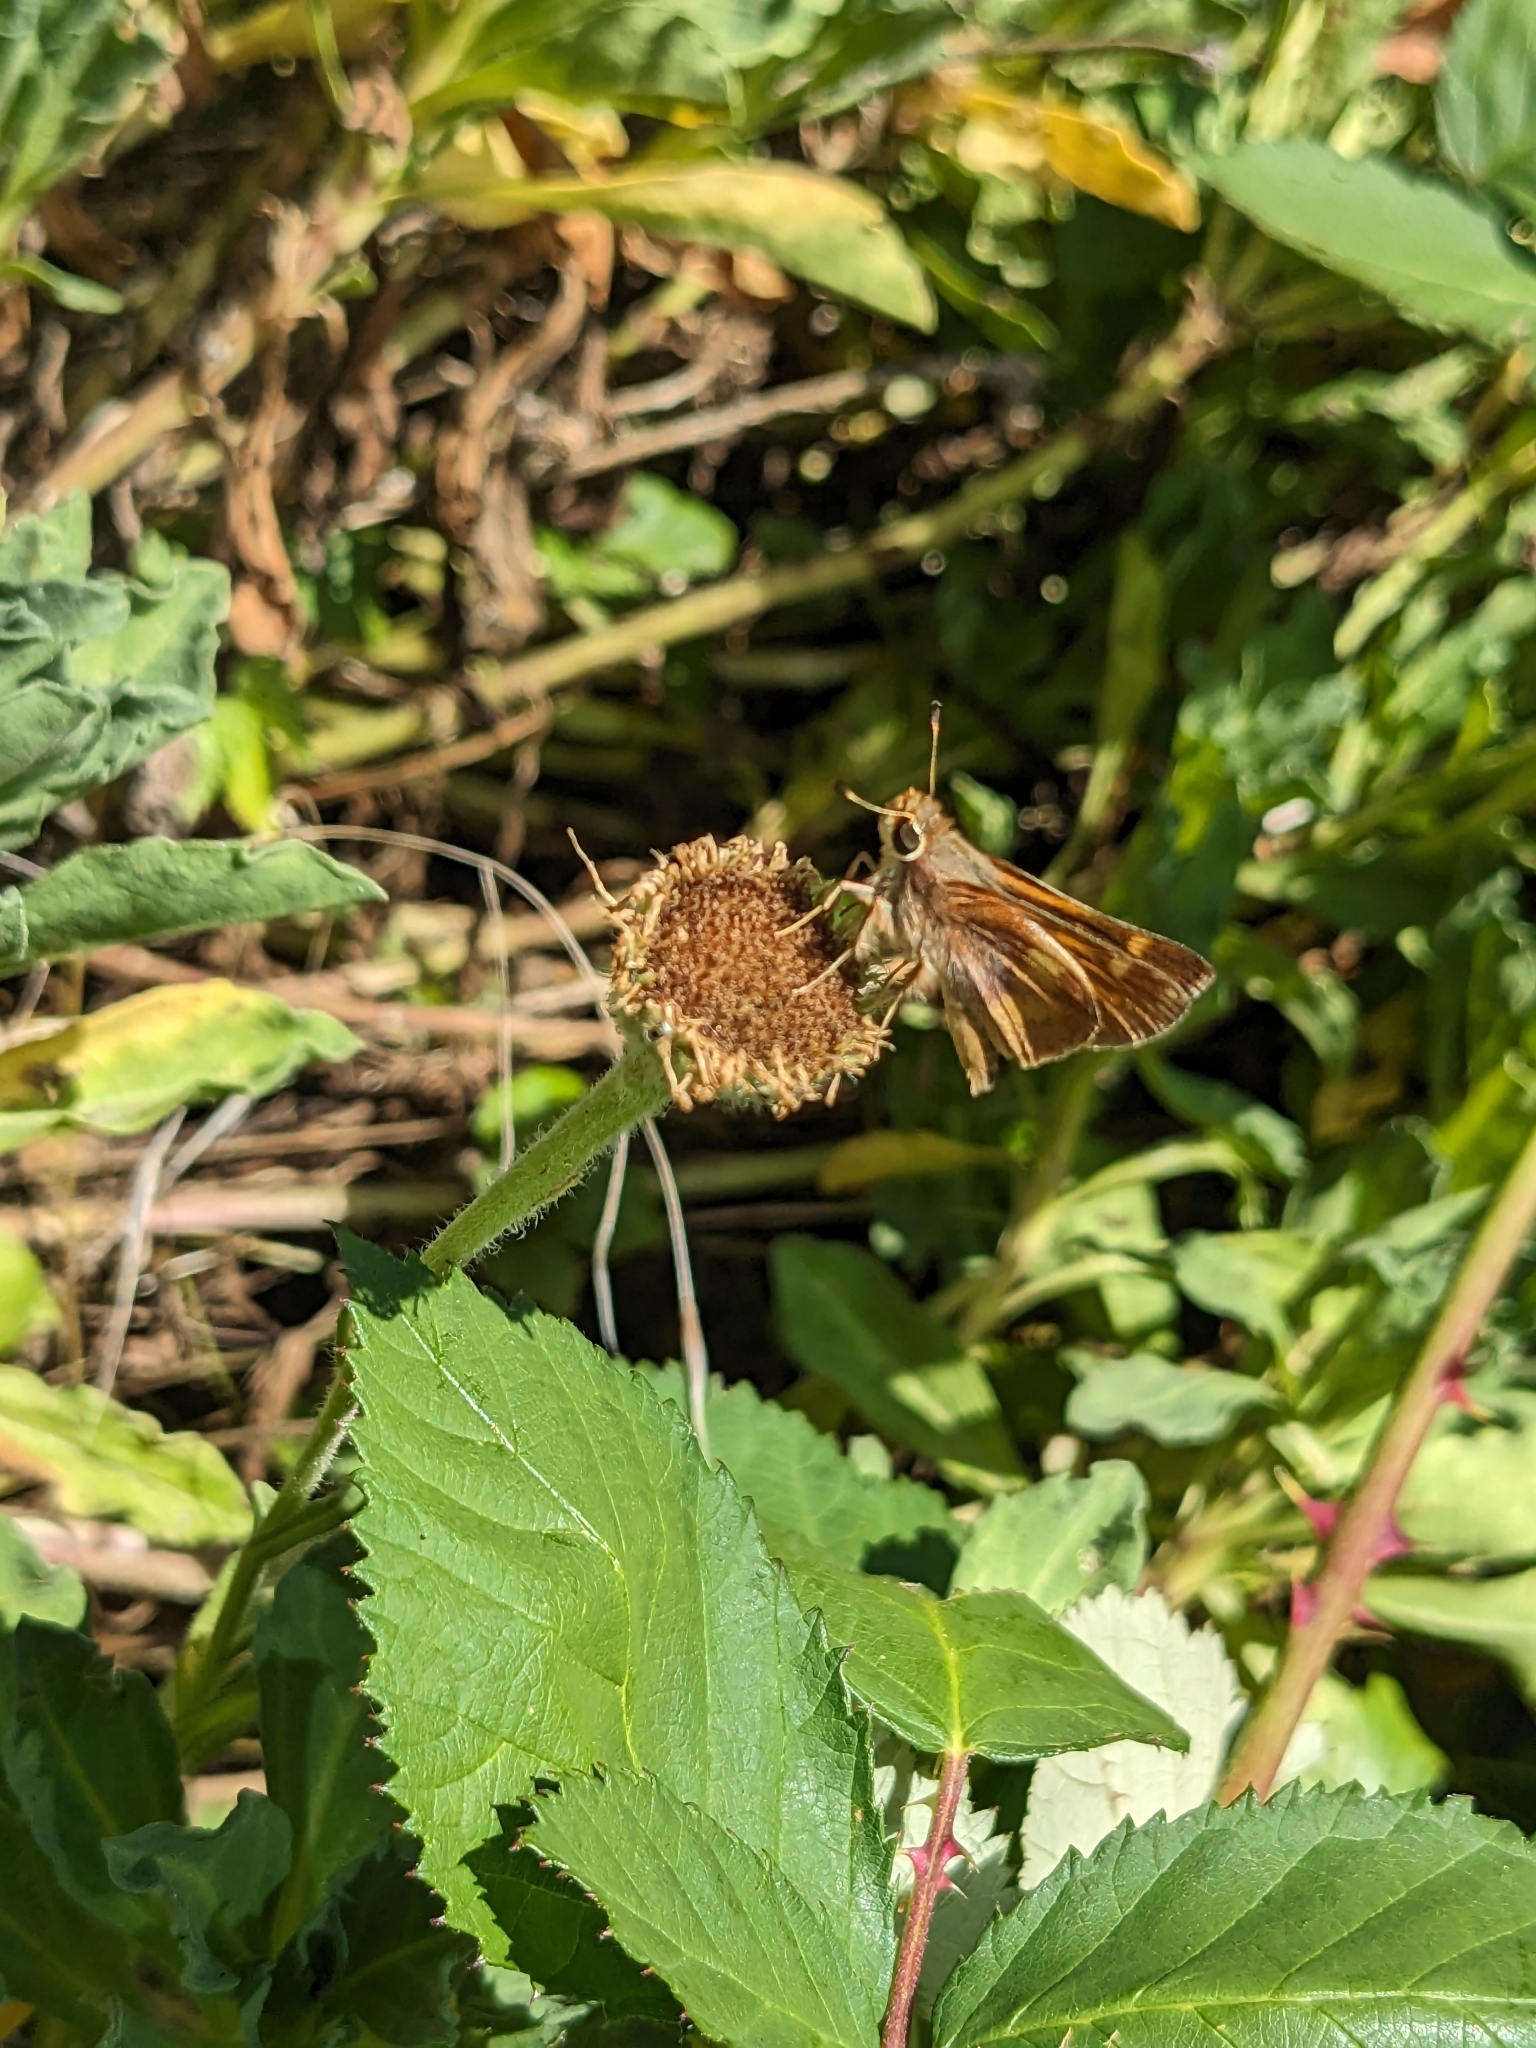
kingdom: Animalia
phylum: Arthropoda
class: Insecta
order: Lepidoptera
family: Hesperiidae
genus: Lon
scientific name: Lon melane
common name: Umber skipper
